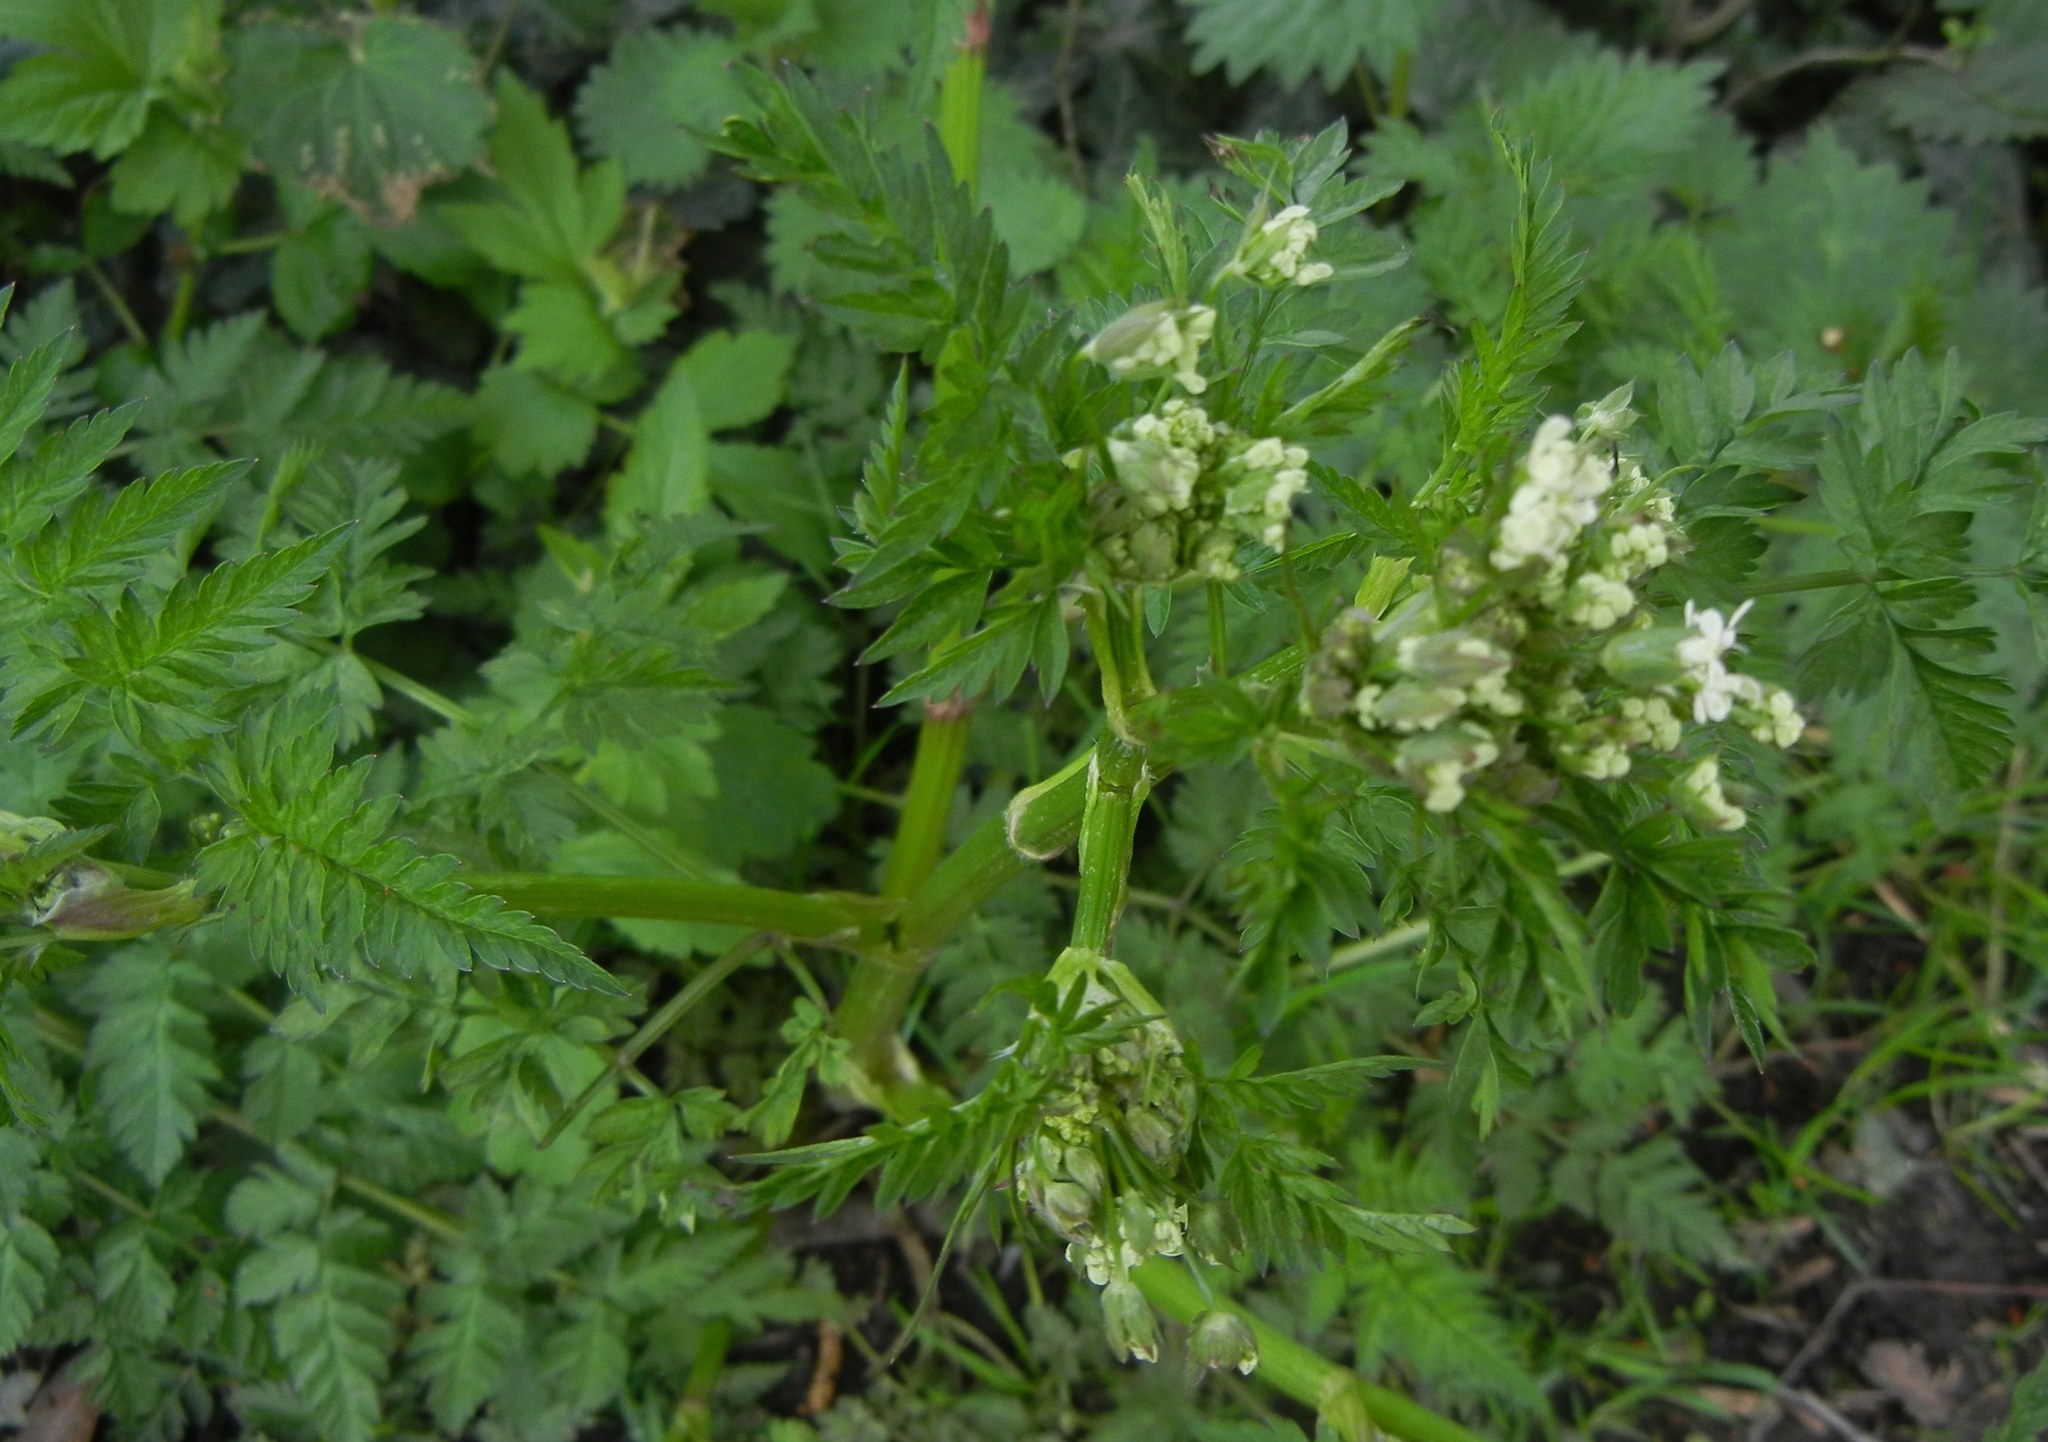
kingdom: Plantae
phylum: Tracheophyta
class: Magnoliopsida
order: Apiales
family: Apiaceae
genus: Anthriscus
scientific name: Anthriscus sylvestris
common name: Cow parsley
